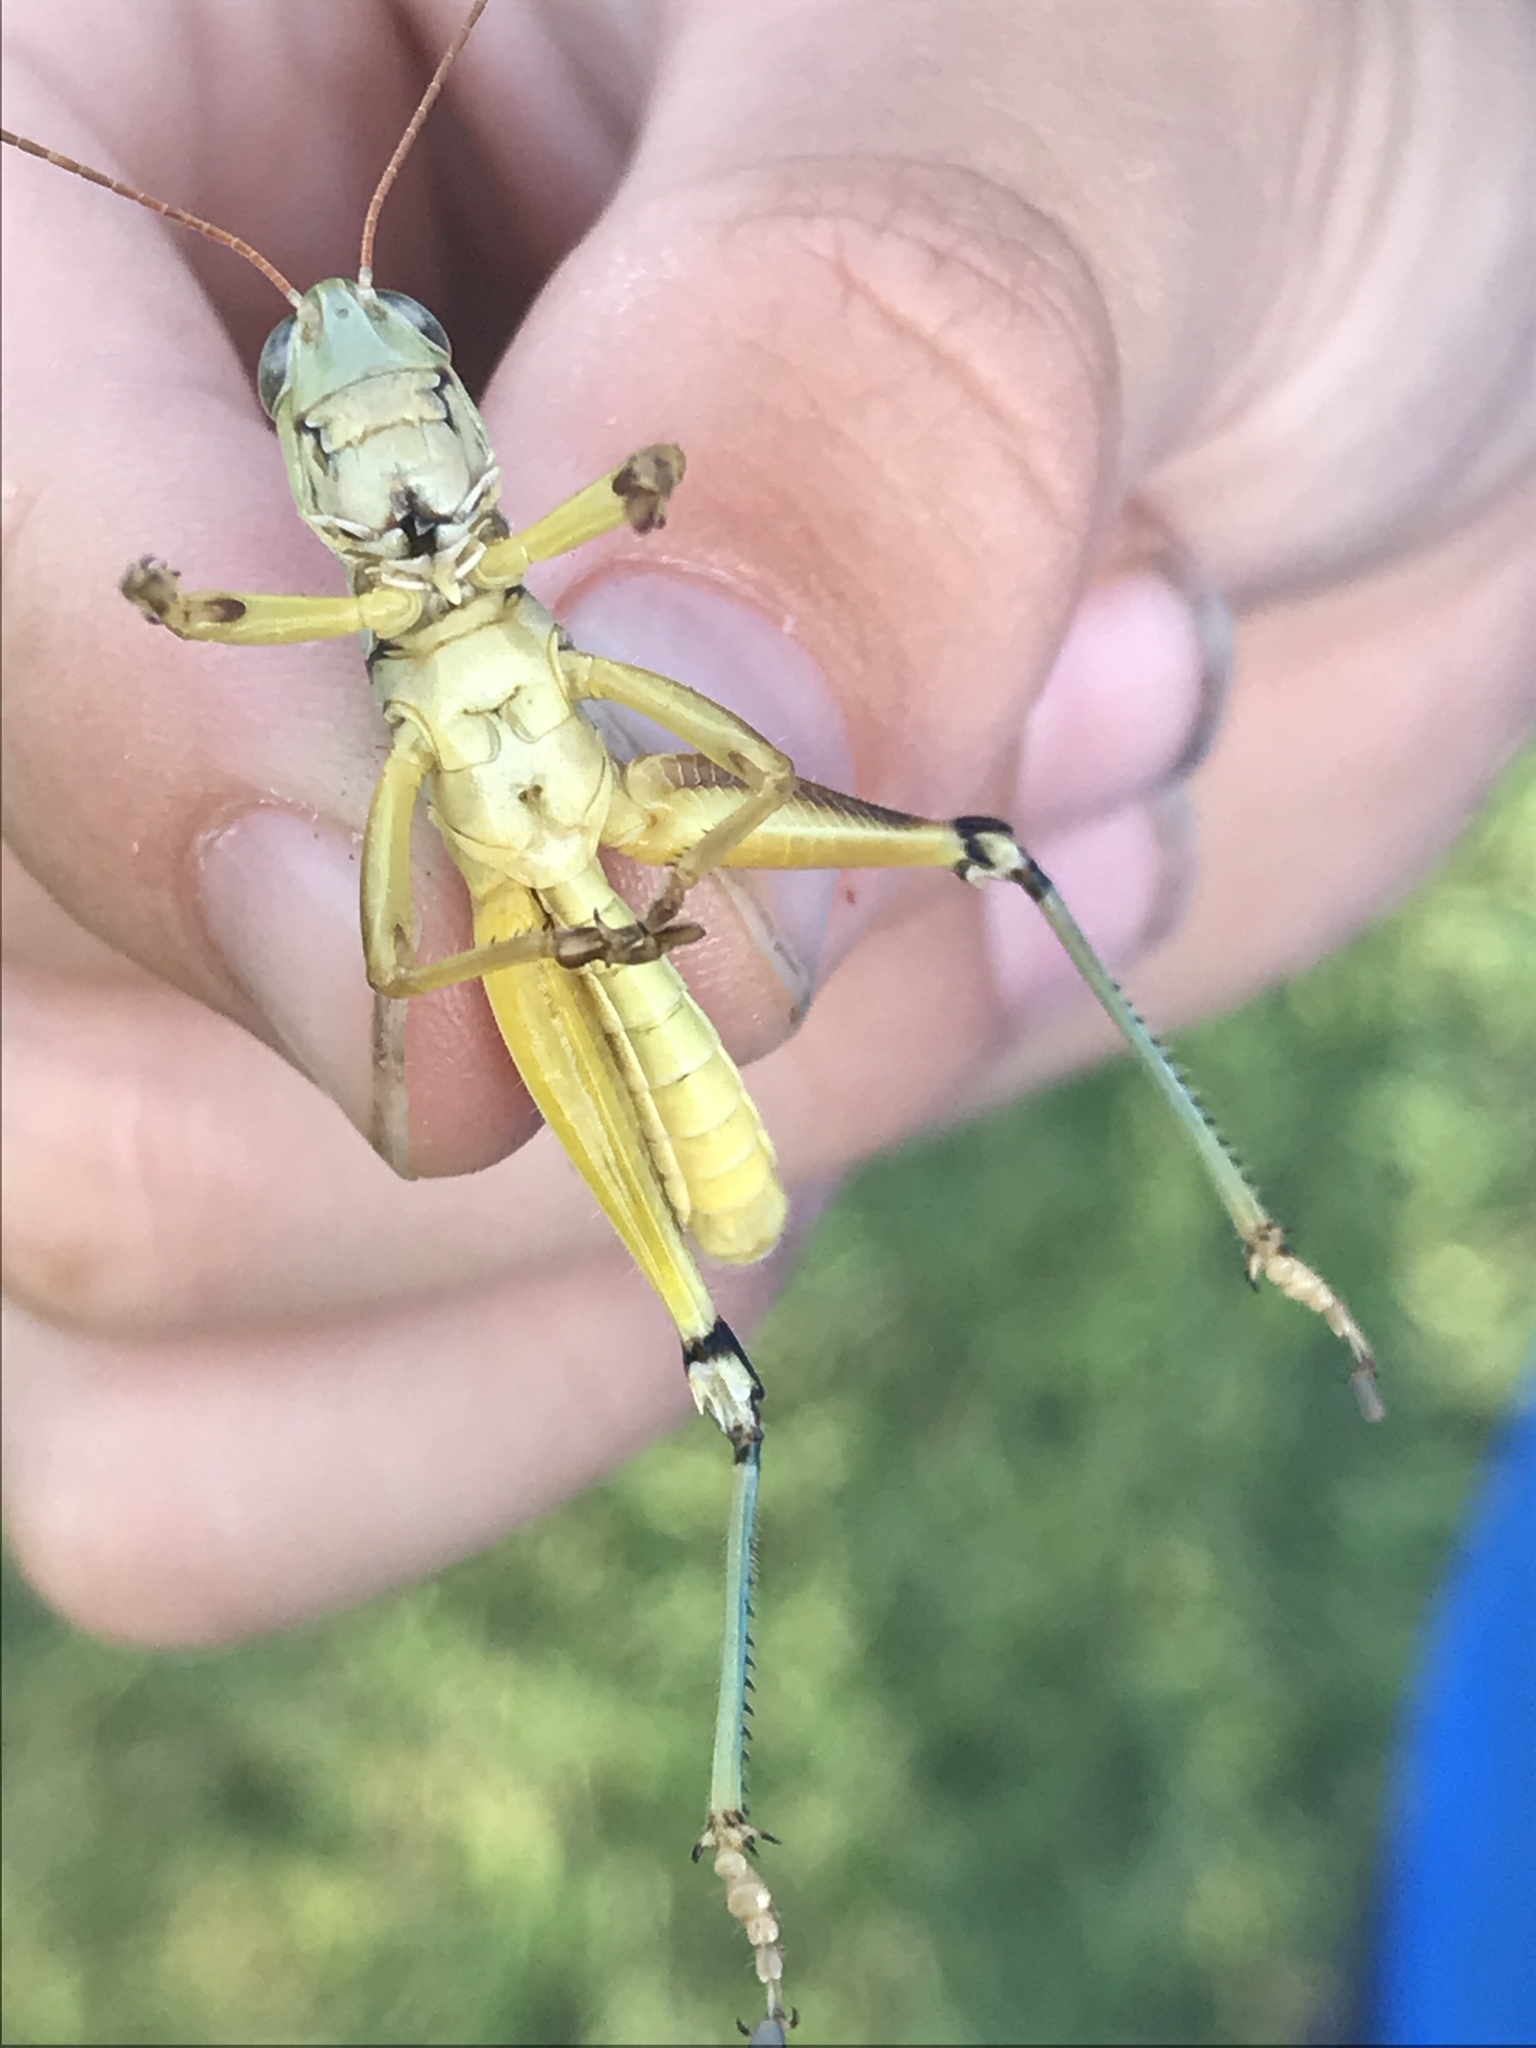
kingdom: Animalia
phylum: Arthropoda
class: Insecta
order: Orthoptera
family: Acrididae
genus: Phoetaliotes
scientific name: Phoetaliotes nebrascensis
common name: Large-headed grasshopper
